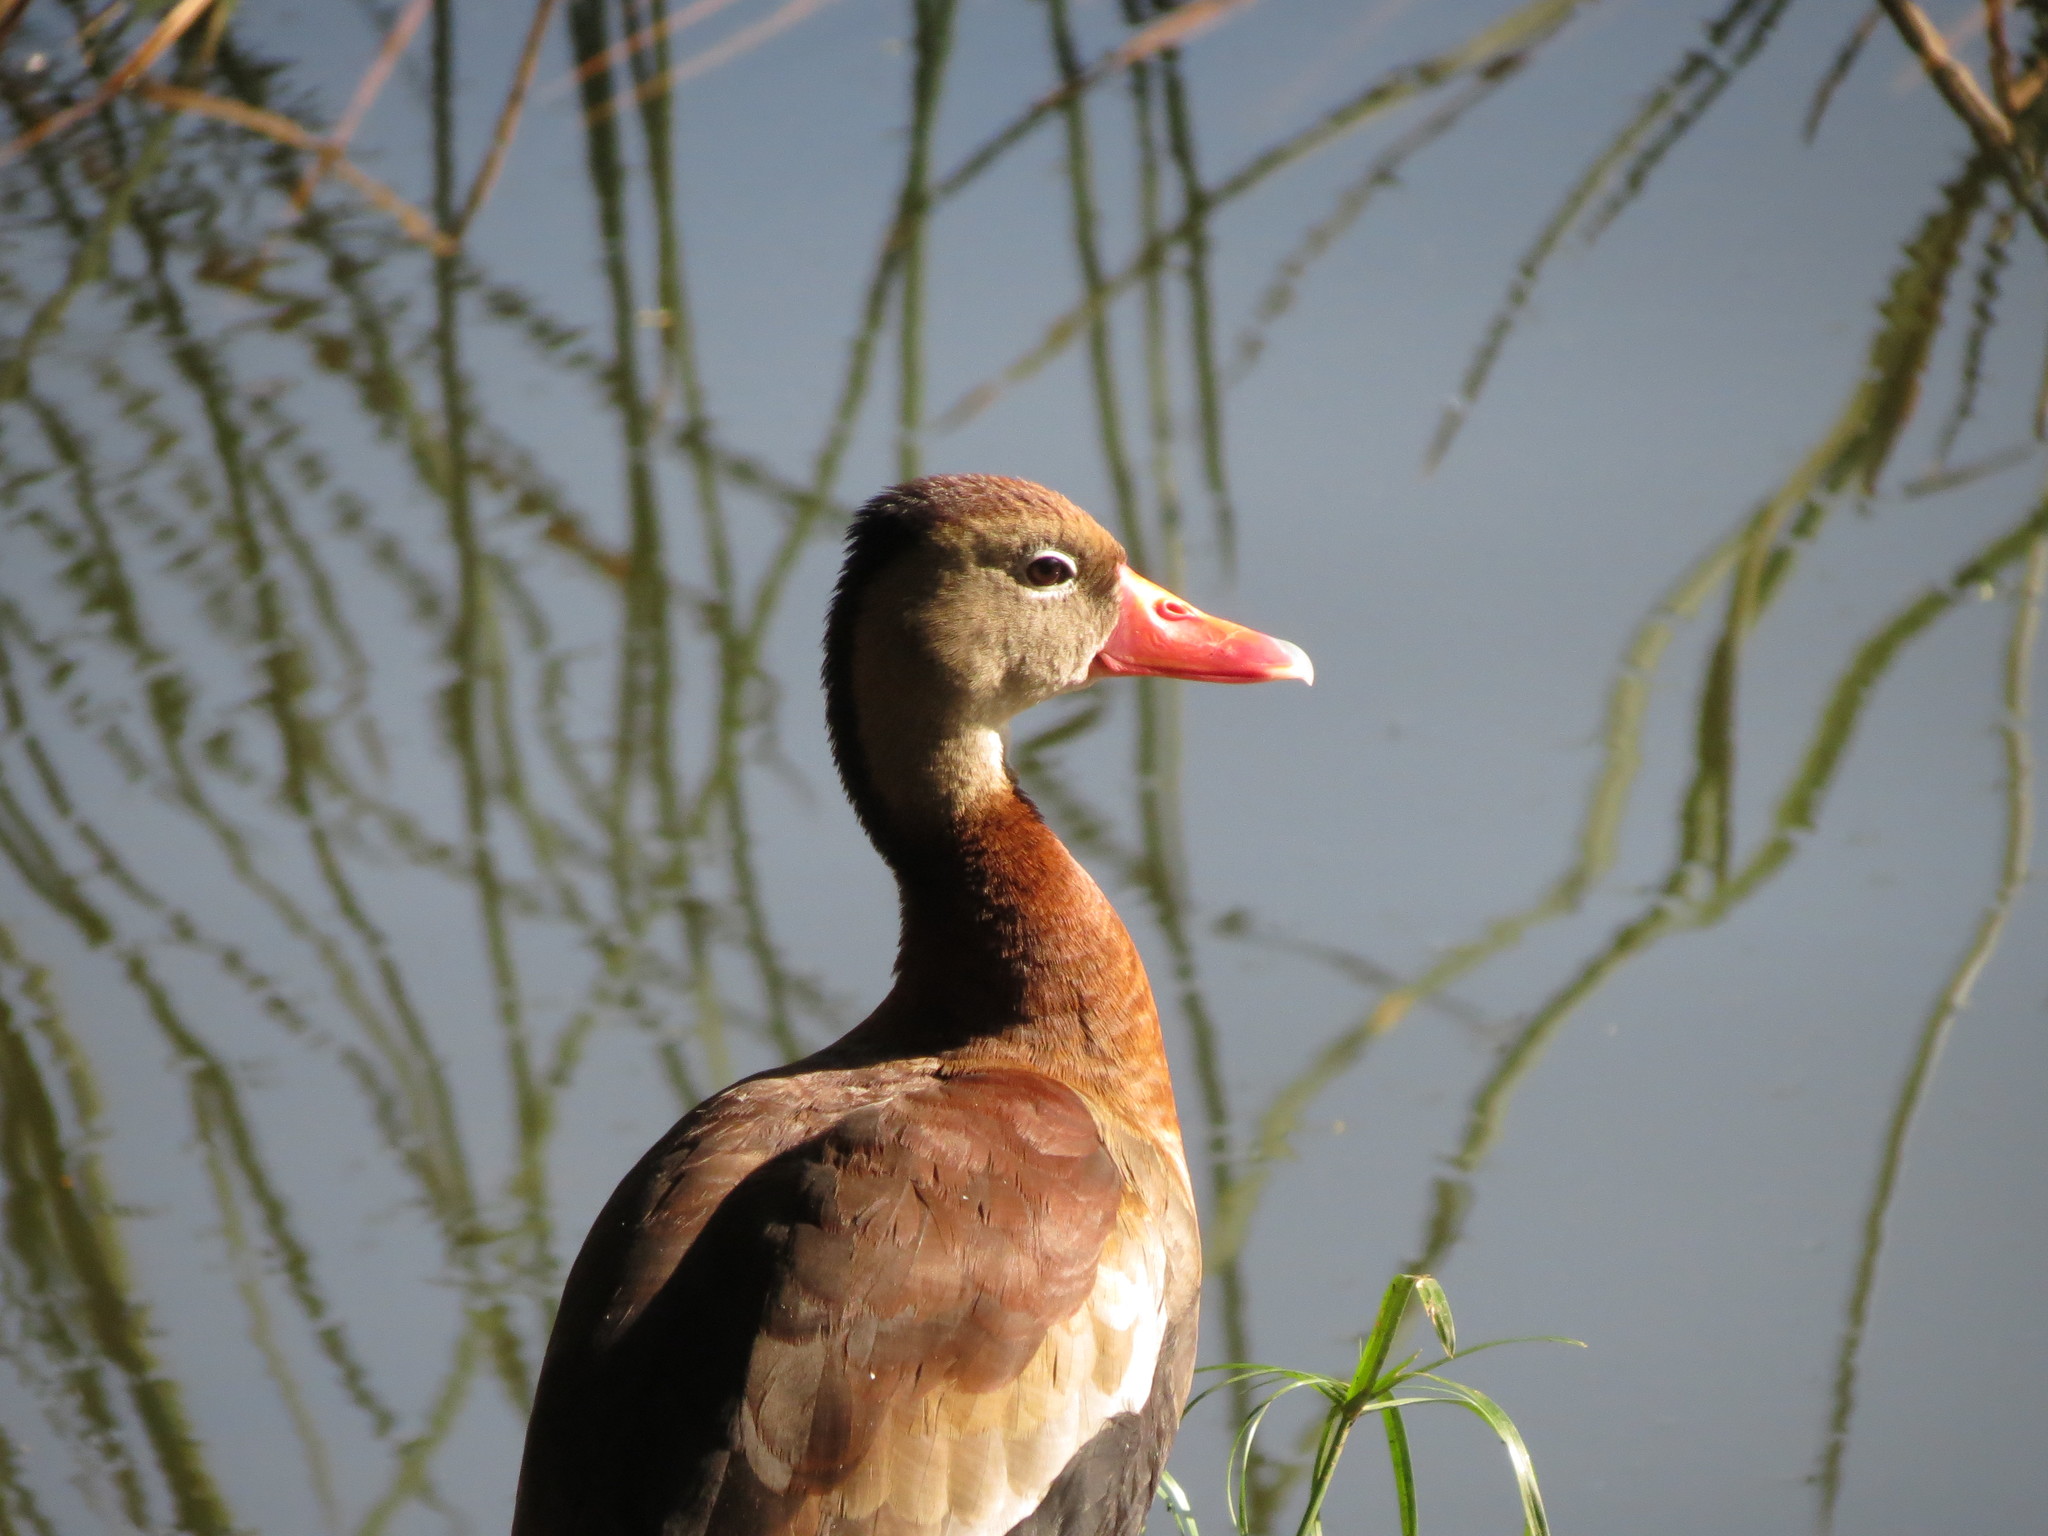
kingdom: Animalia
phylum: Chordata
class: Aves
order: Anseriformes
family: Anatidae
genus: Dendrocygna
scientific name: Dendrocygna autumnalis
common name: Black-bellied whistling duck
